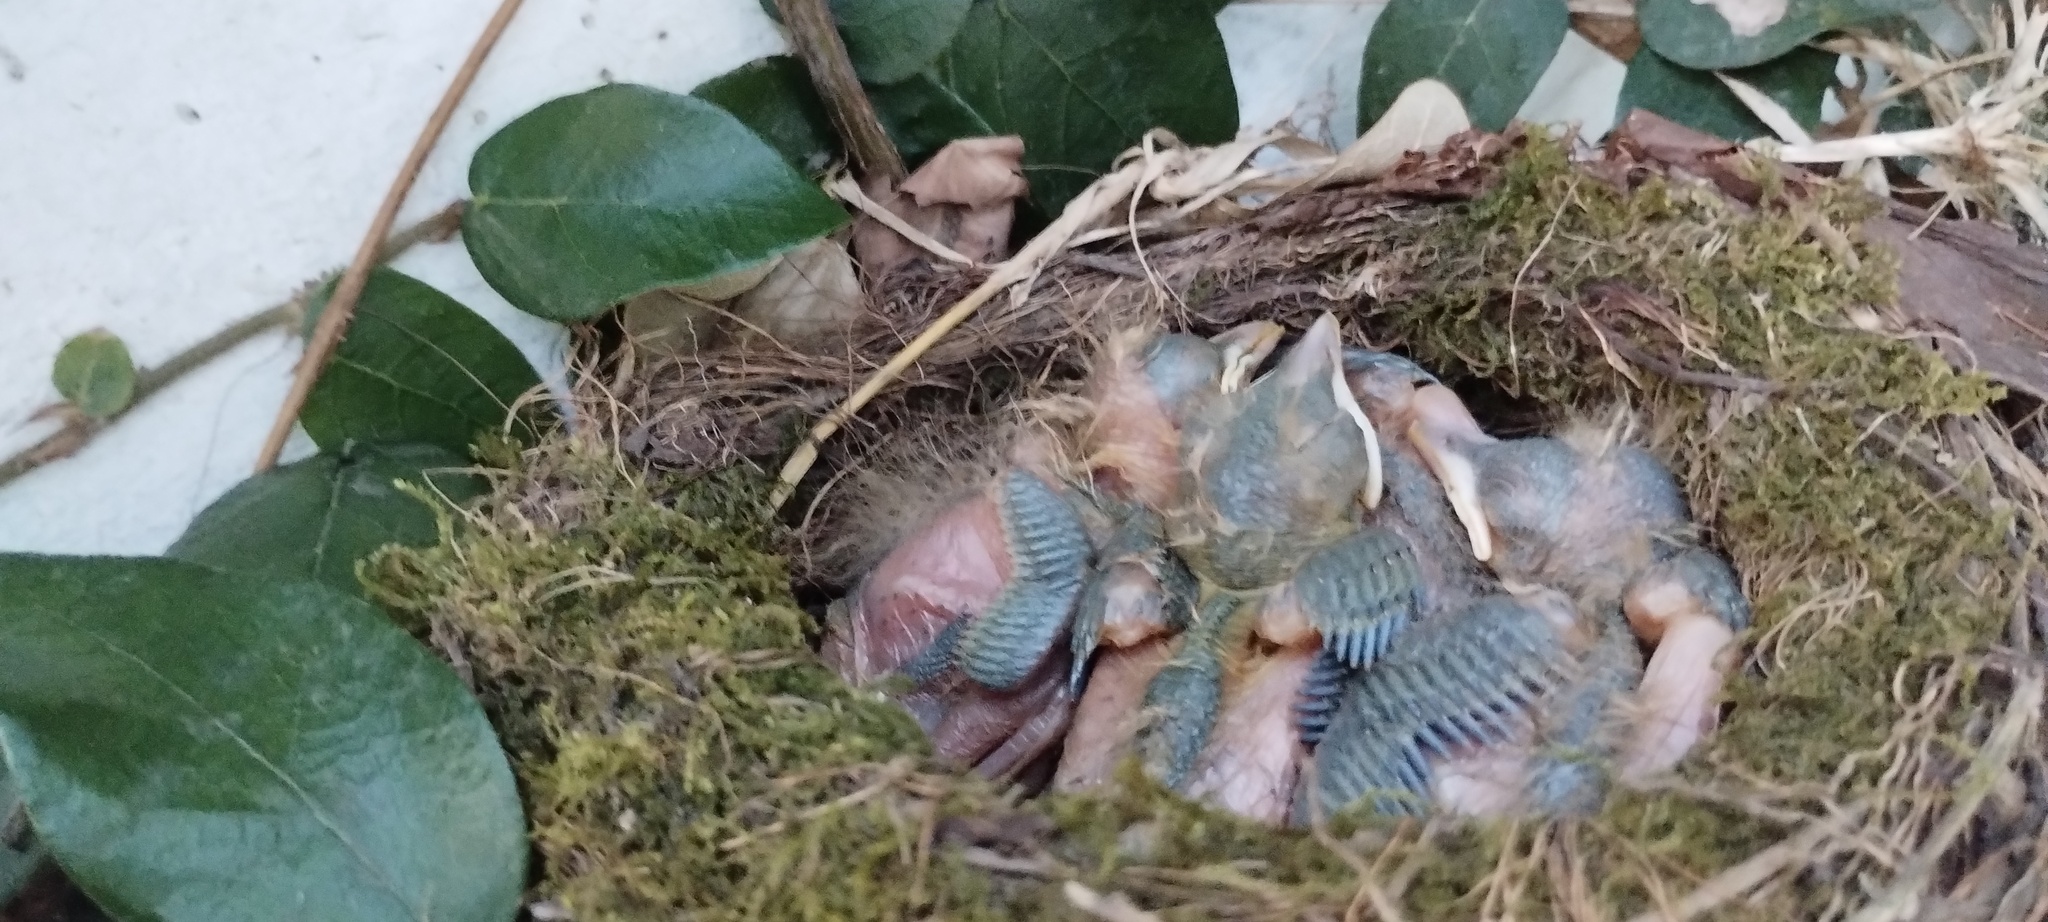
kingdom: Animalia
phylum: Chordata
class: Aves
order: Passeriformes
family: Turdidae
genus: Turdus
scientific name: Turdus rufiventris
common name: Rufous-bellied thrush
